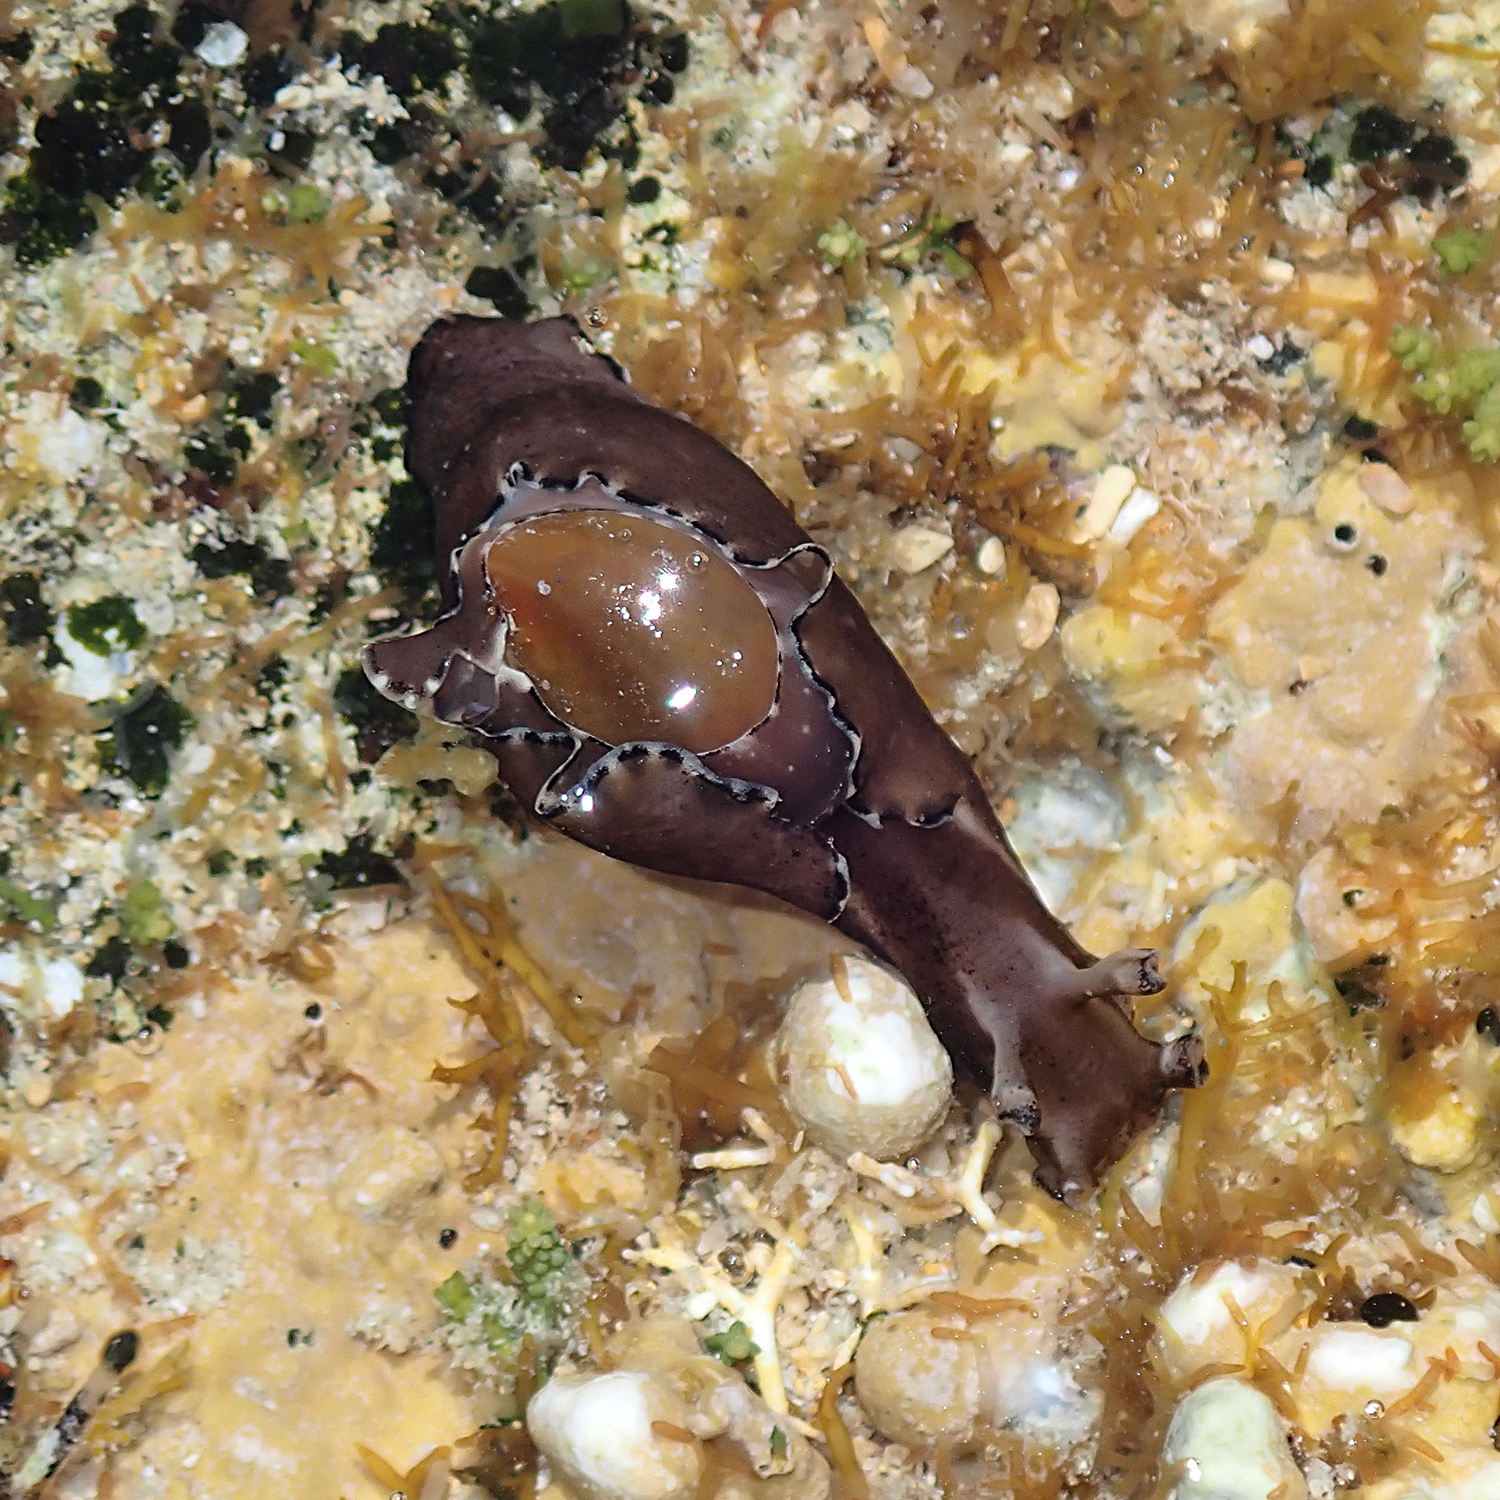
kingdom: Animalia
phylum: Mollusca
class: Gastropoda
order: Aplysiida
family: Aplysiidae
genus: Aplysia
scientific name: Aplysia concava
